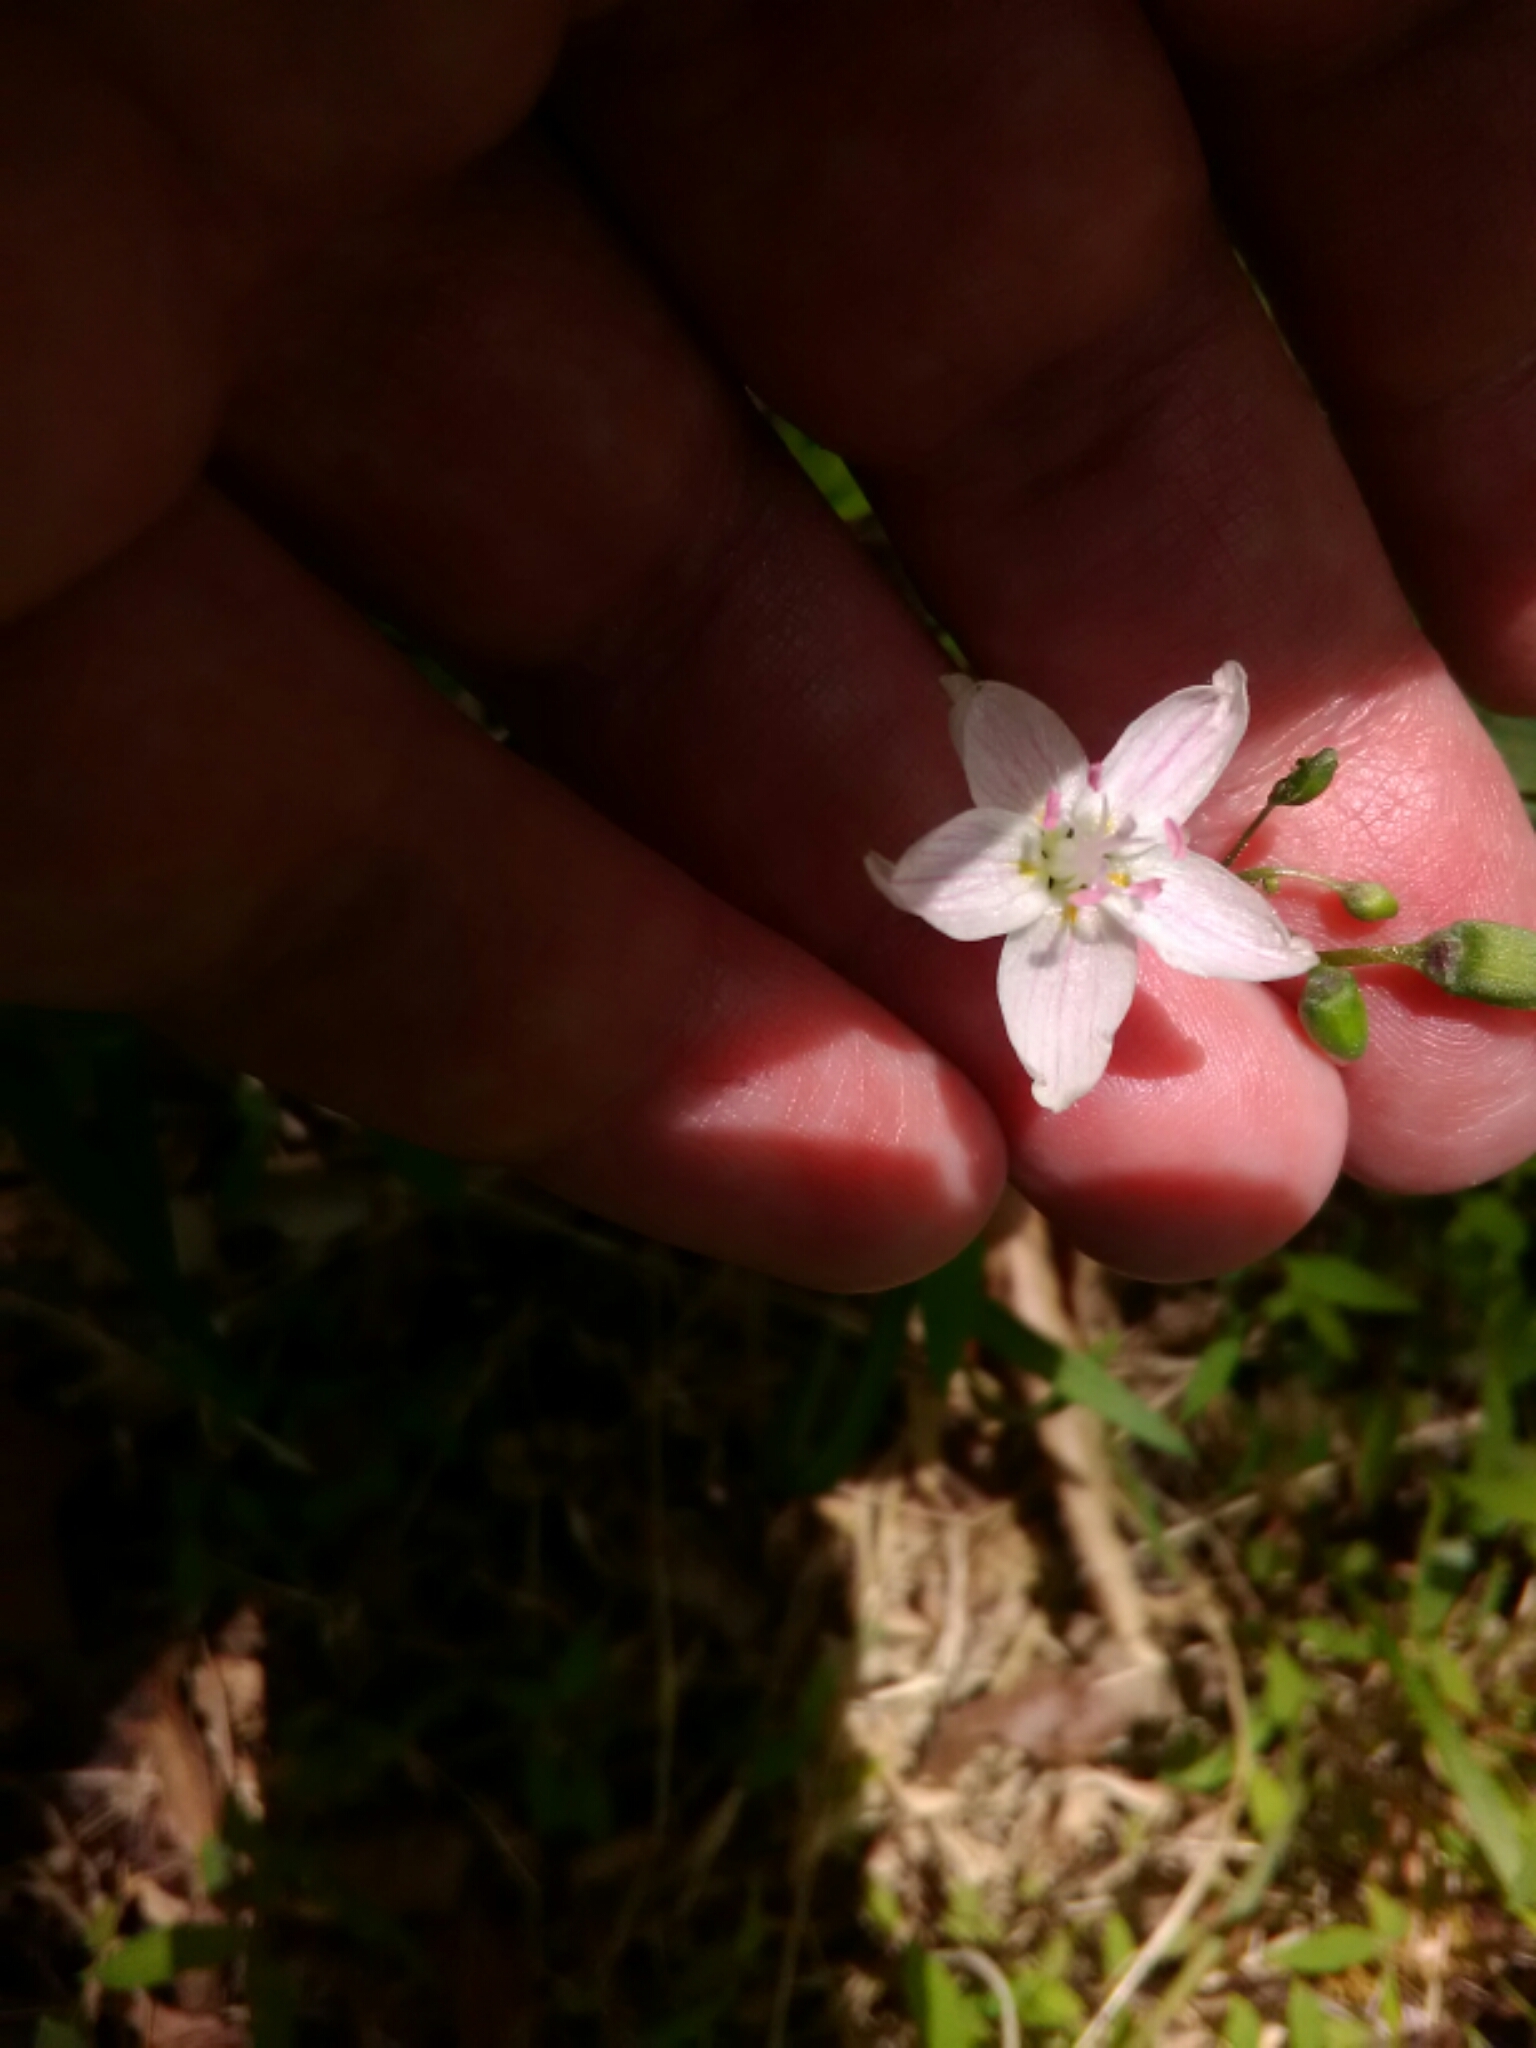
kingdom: Plantae
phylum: Tracheophyta
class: Magnoliopsida
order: Caryophyllales
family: Montiaceae
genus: Claytonia
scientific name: Claytonia virginica
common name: Virginia springbeauty
